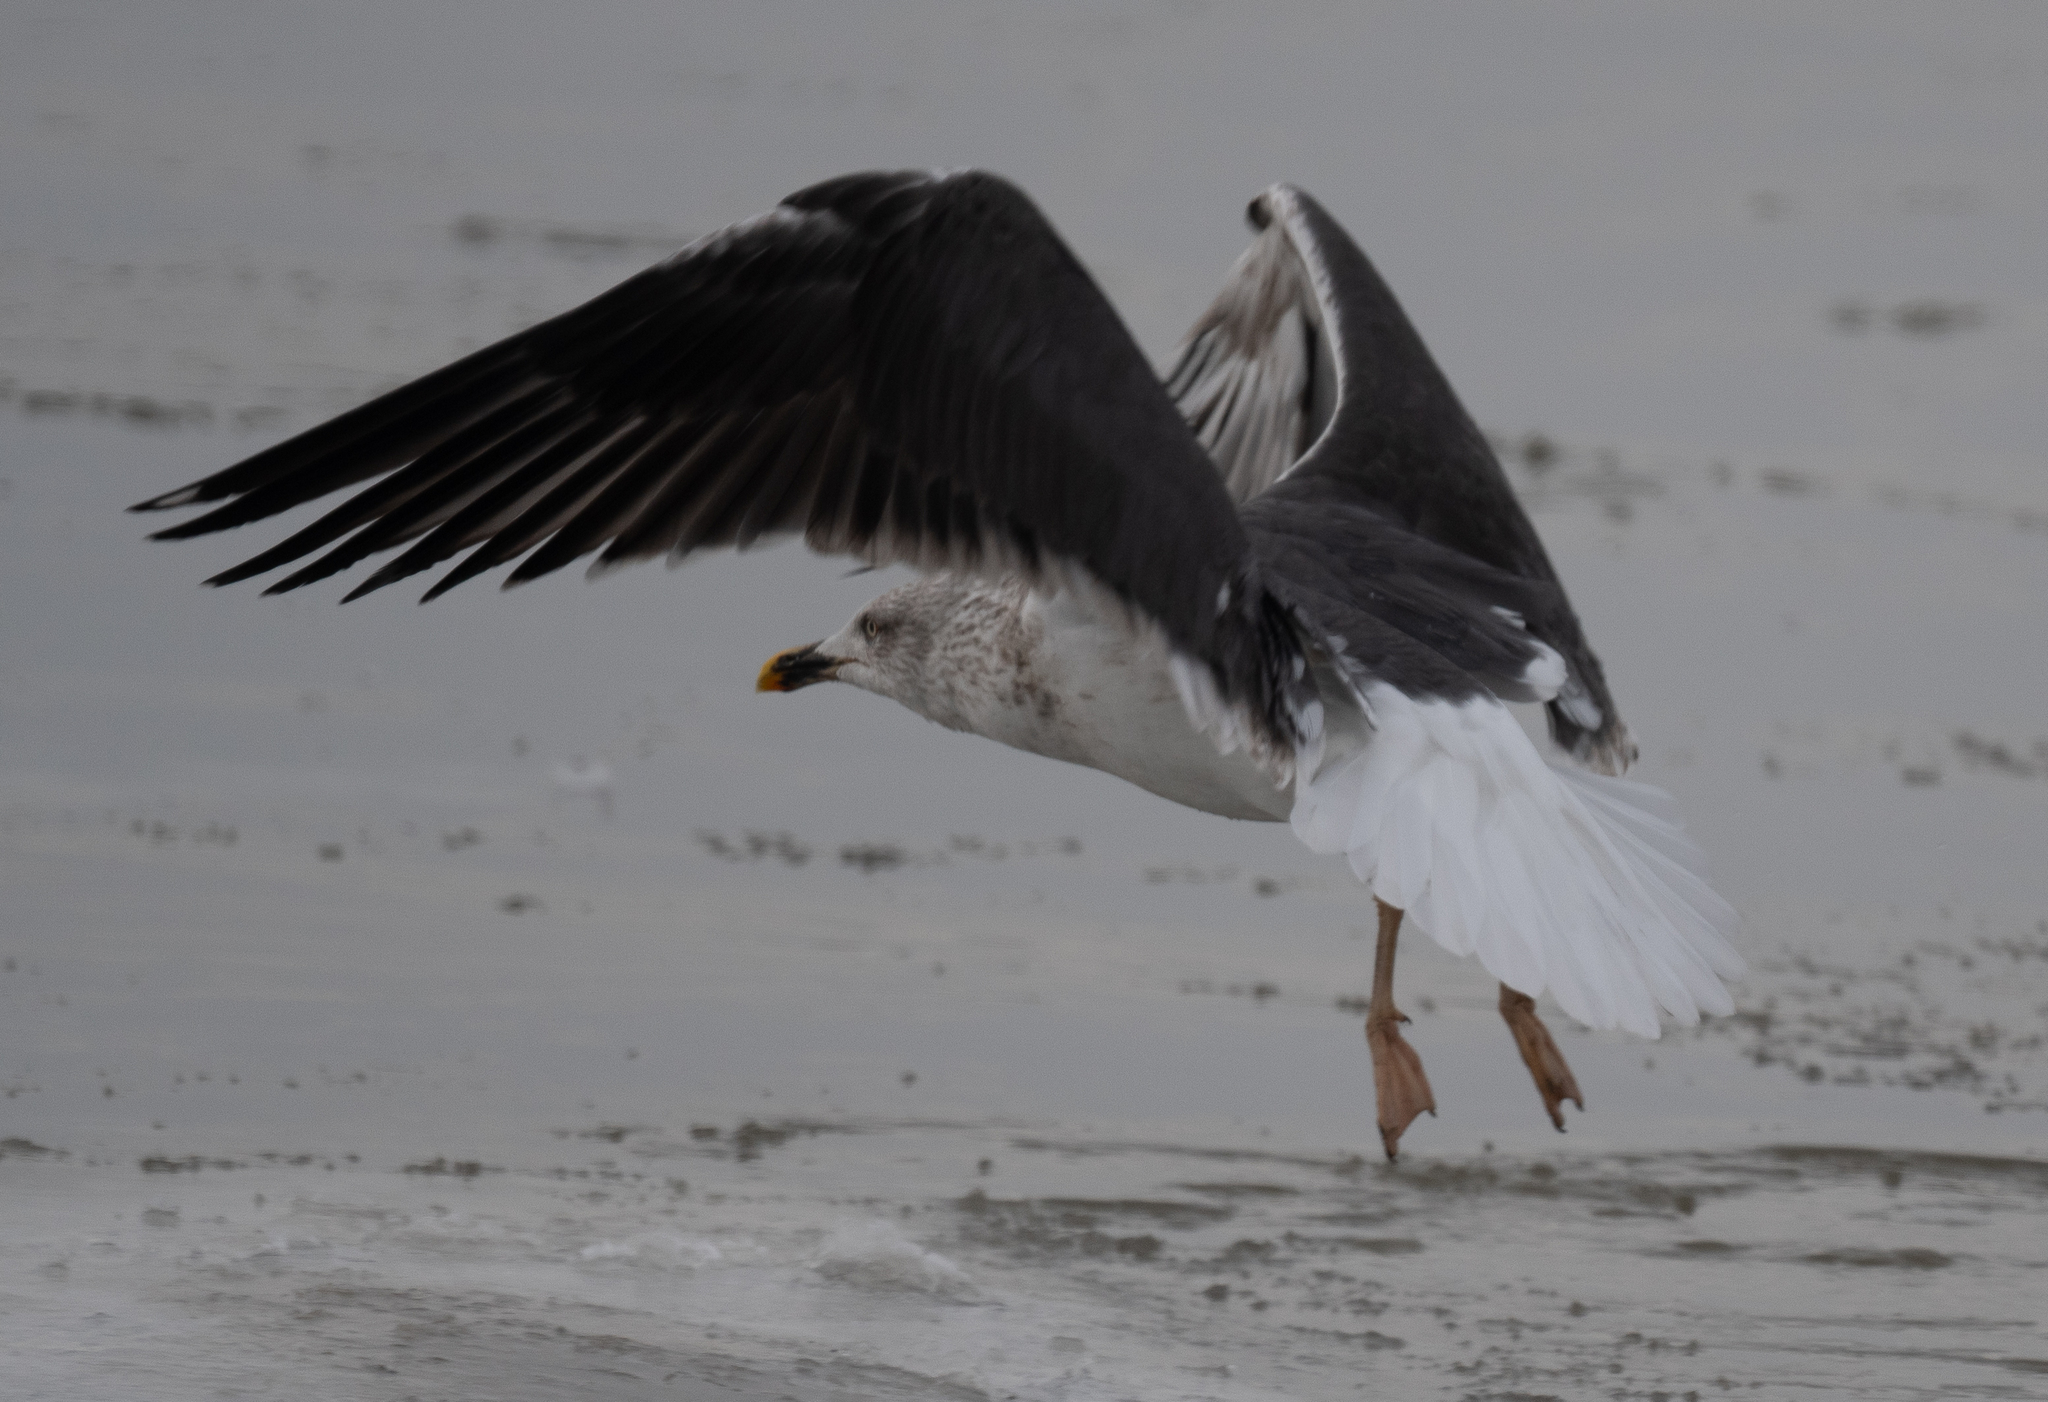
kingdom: Animalia
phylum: Chordata
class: Aves
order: Charadriiformes
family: Laridae
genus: Larus
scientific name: Larus fuscus
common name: Lesser black-backed gull
